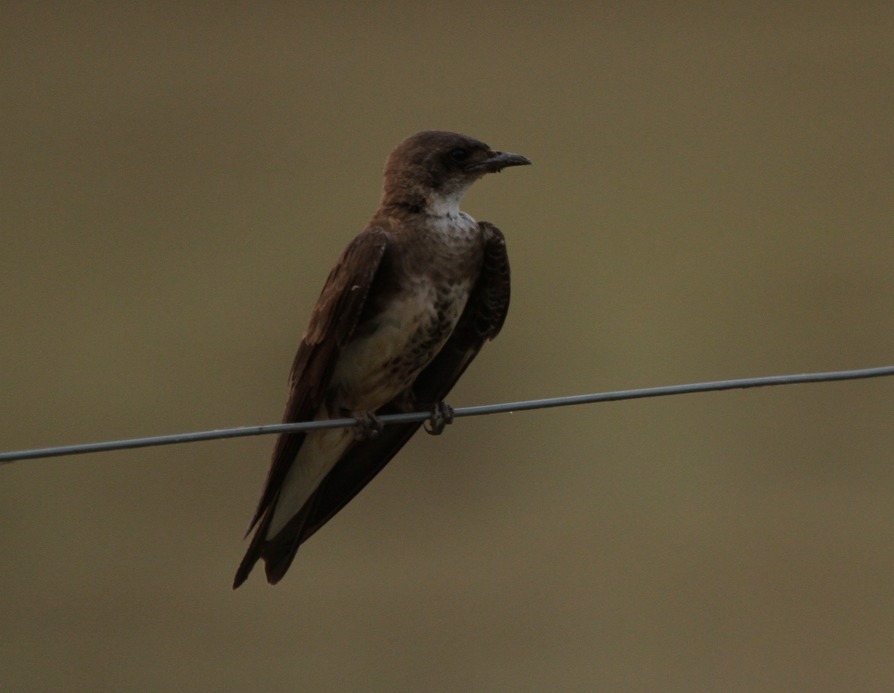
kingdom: Animalia
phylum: Chordata
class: Aves
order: Passeriformes
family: Hirundinidae
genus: Progne
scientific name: Progne tapera
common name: Brown-chested martin
